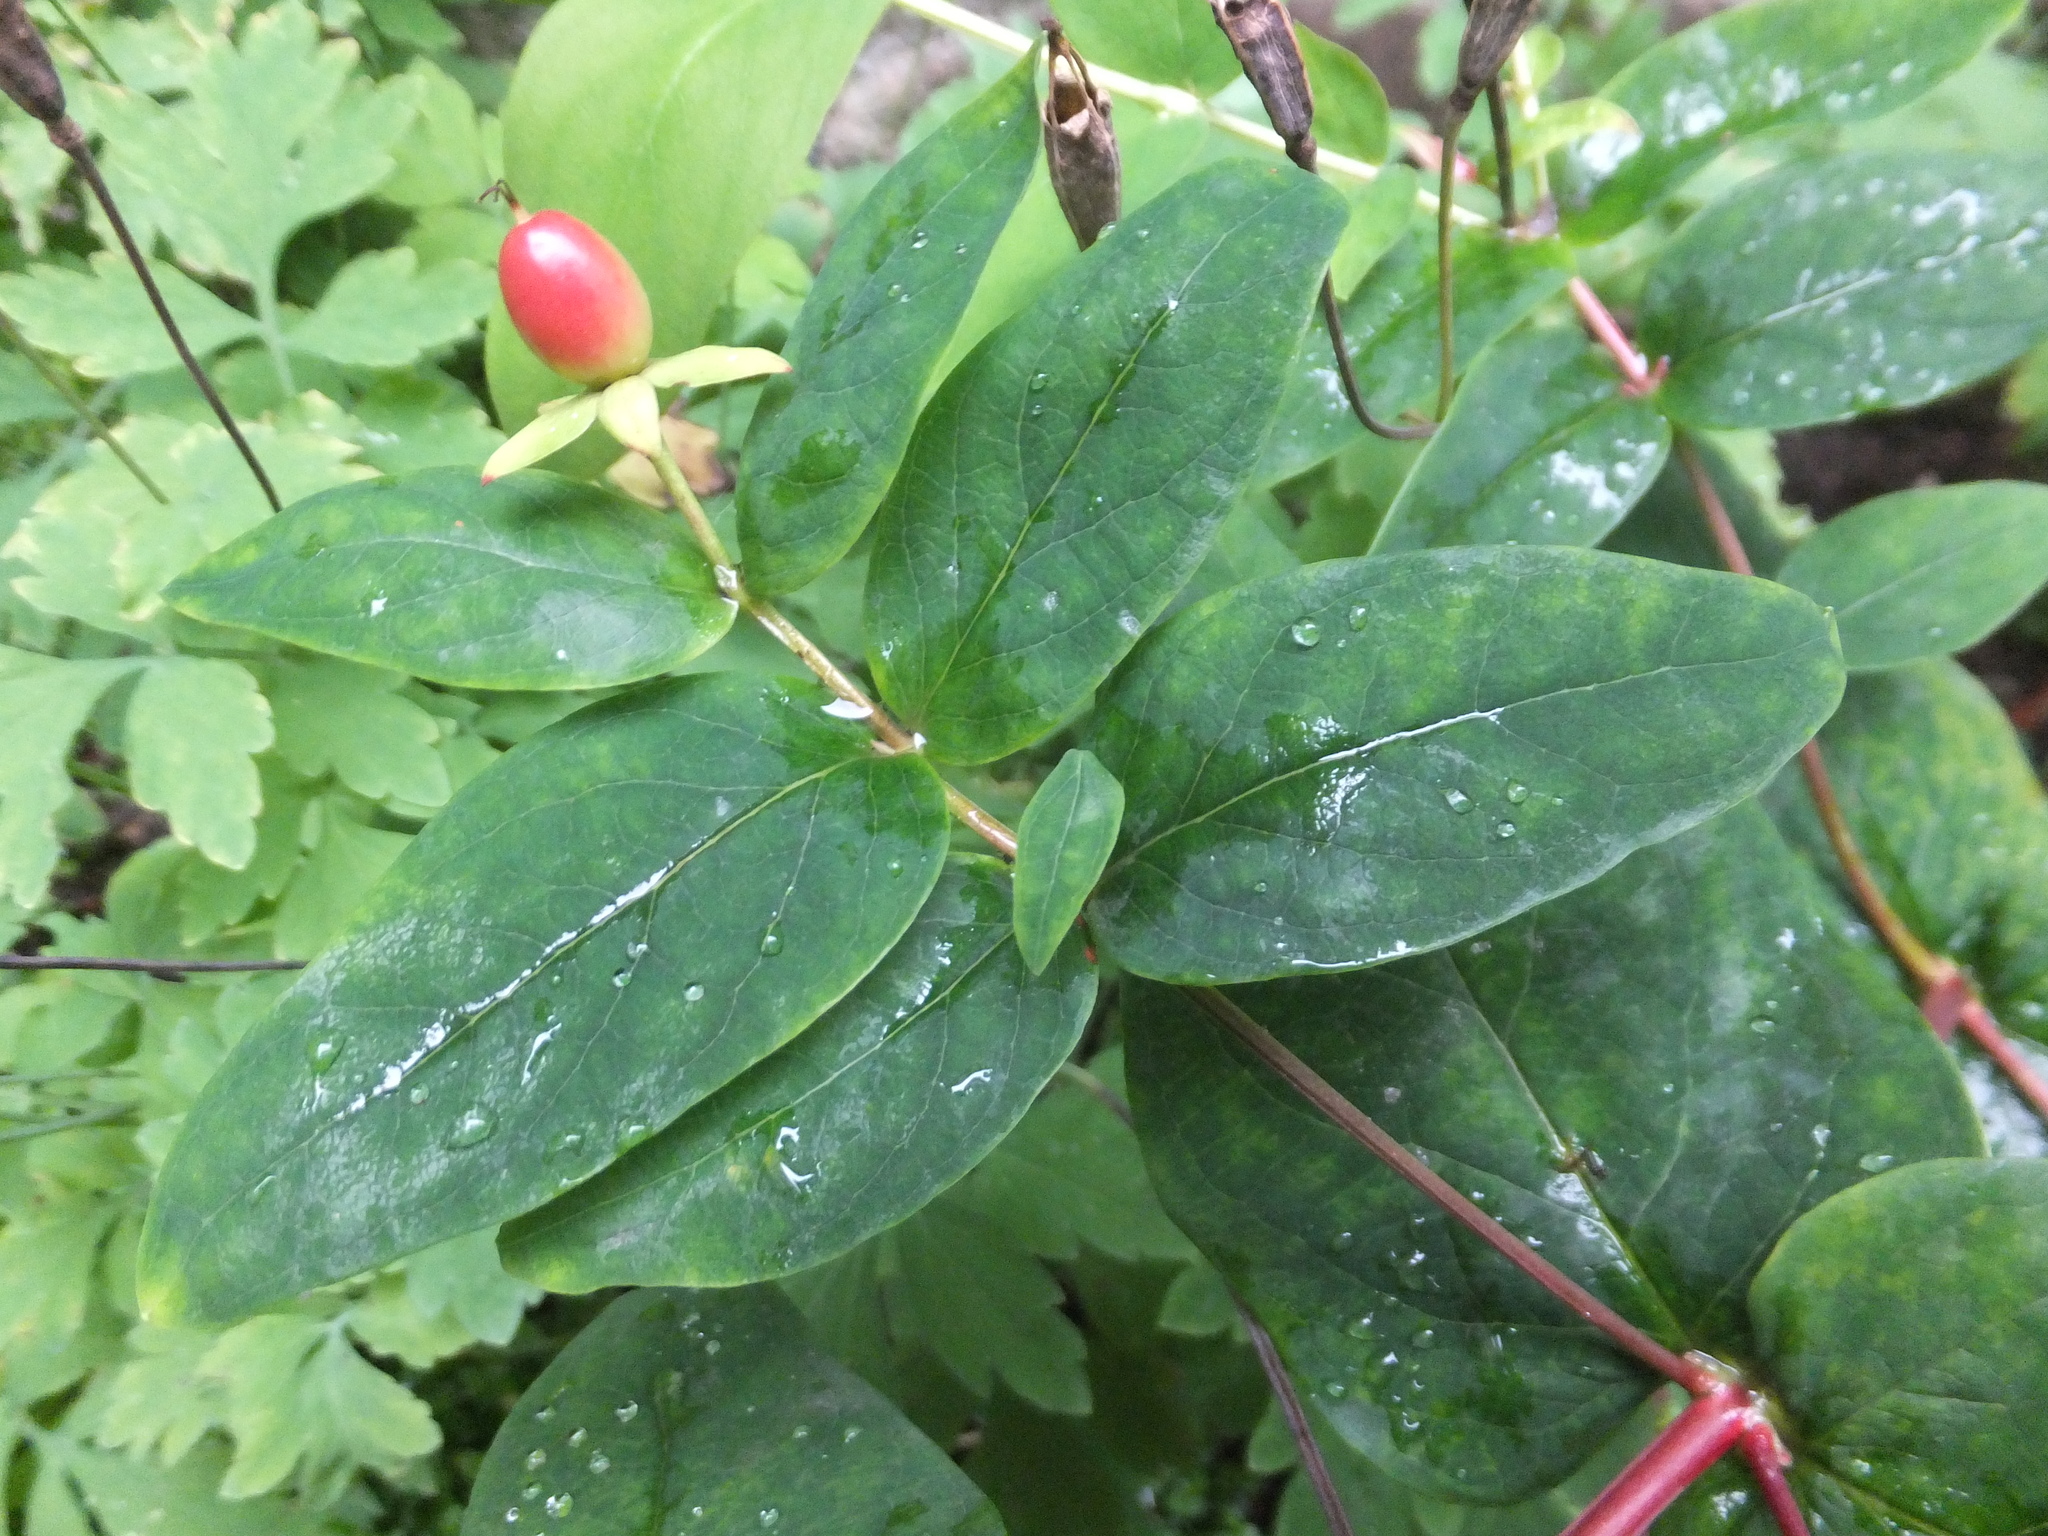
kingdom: Plantae
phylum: Tracheophyta
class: Magnoliopsida
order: Malpighiales
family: Hypericaceae
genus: Hypericum
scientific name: Hypericum androsaemum
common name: Sweet-amber
